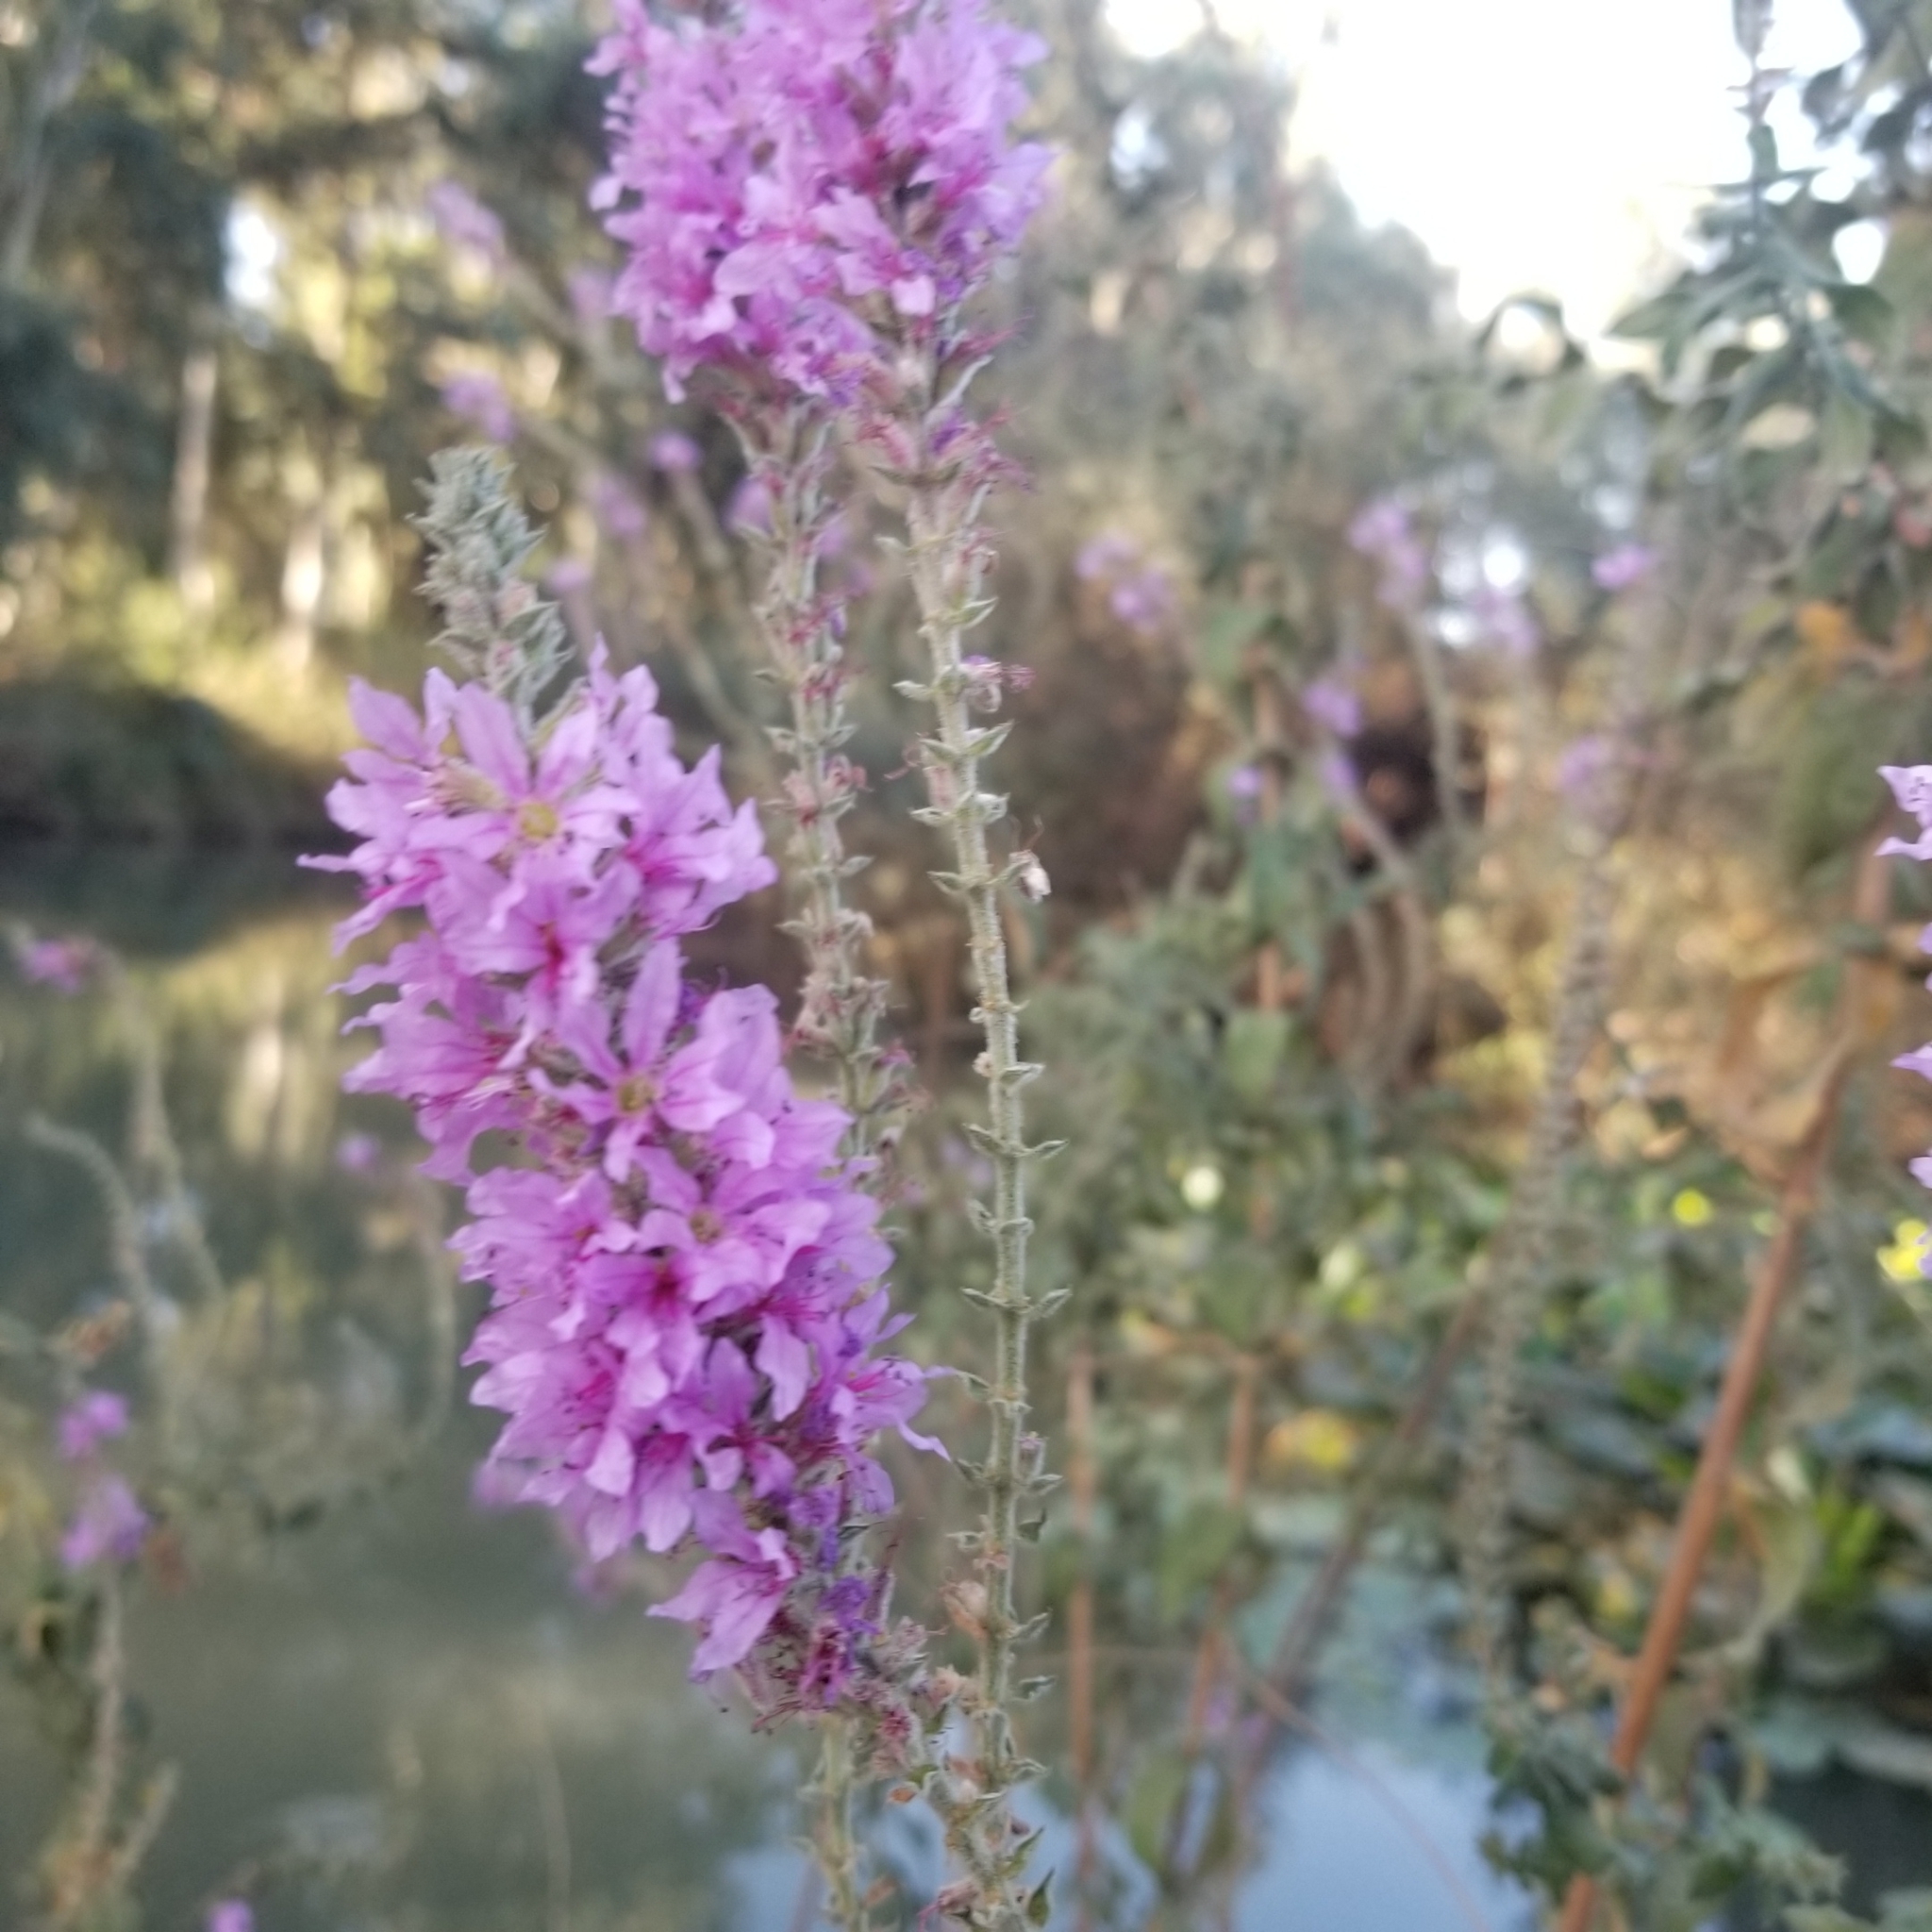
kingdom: Plantae
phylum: Tracheophyta
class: Magnoliopsida
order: Myrtales
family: Lythraceae
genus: Lythrum
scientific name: Lythrum salicaria
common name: Purple loosestrife
